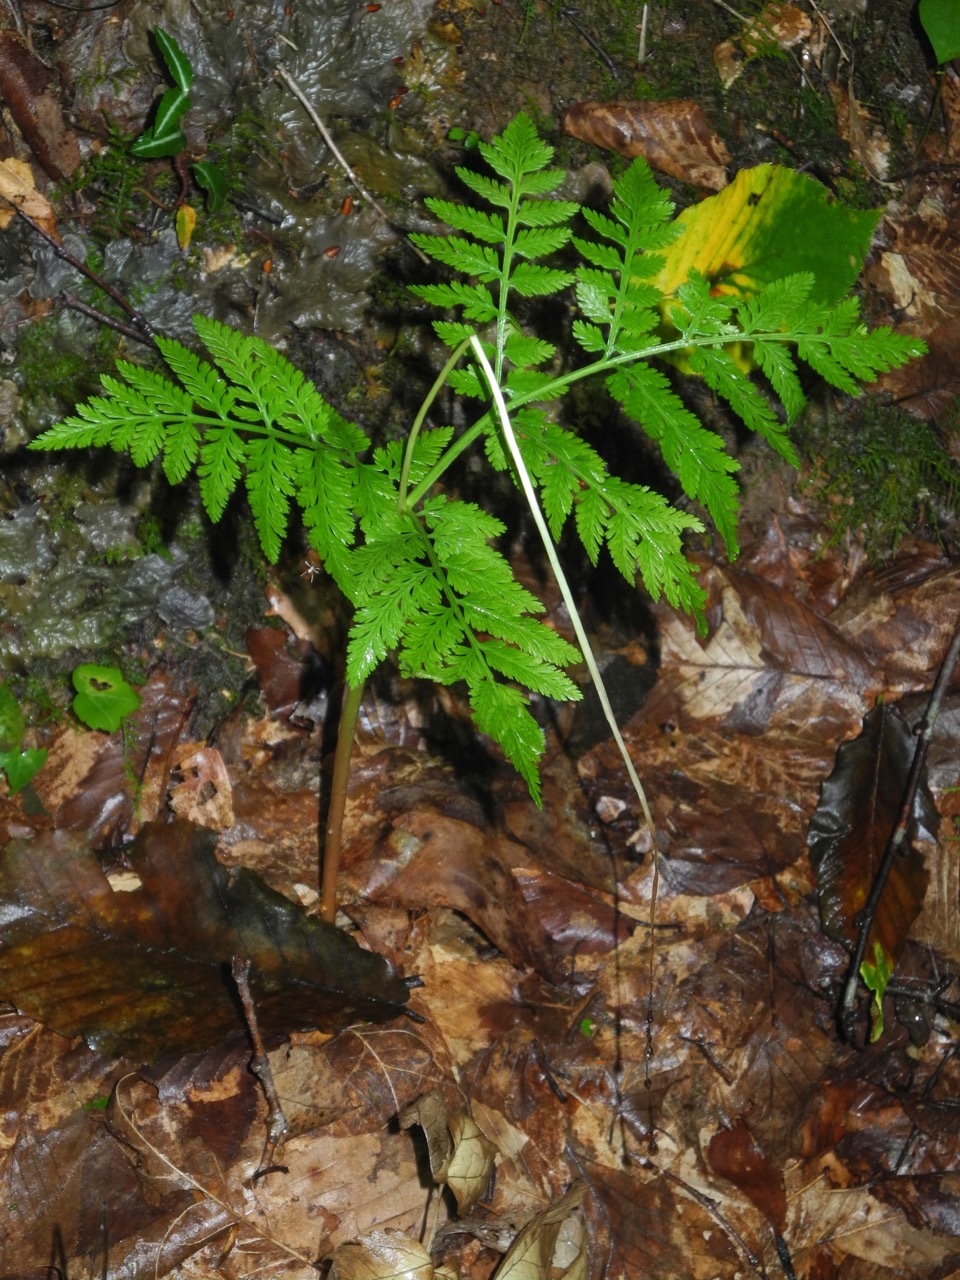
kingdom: Plantae
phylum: Tracheophyta
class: Polypodiopsida
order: Ophioglossales
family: Ophioglossaceae
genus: Botrypus
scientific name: Botrypus virginianus
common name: Common grapefern
